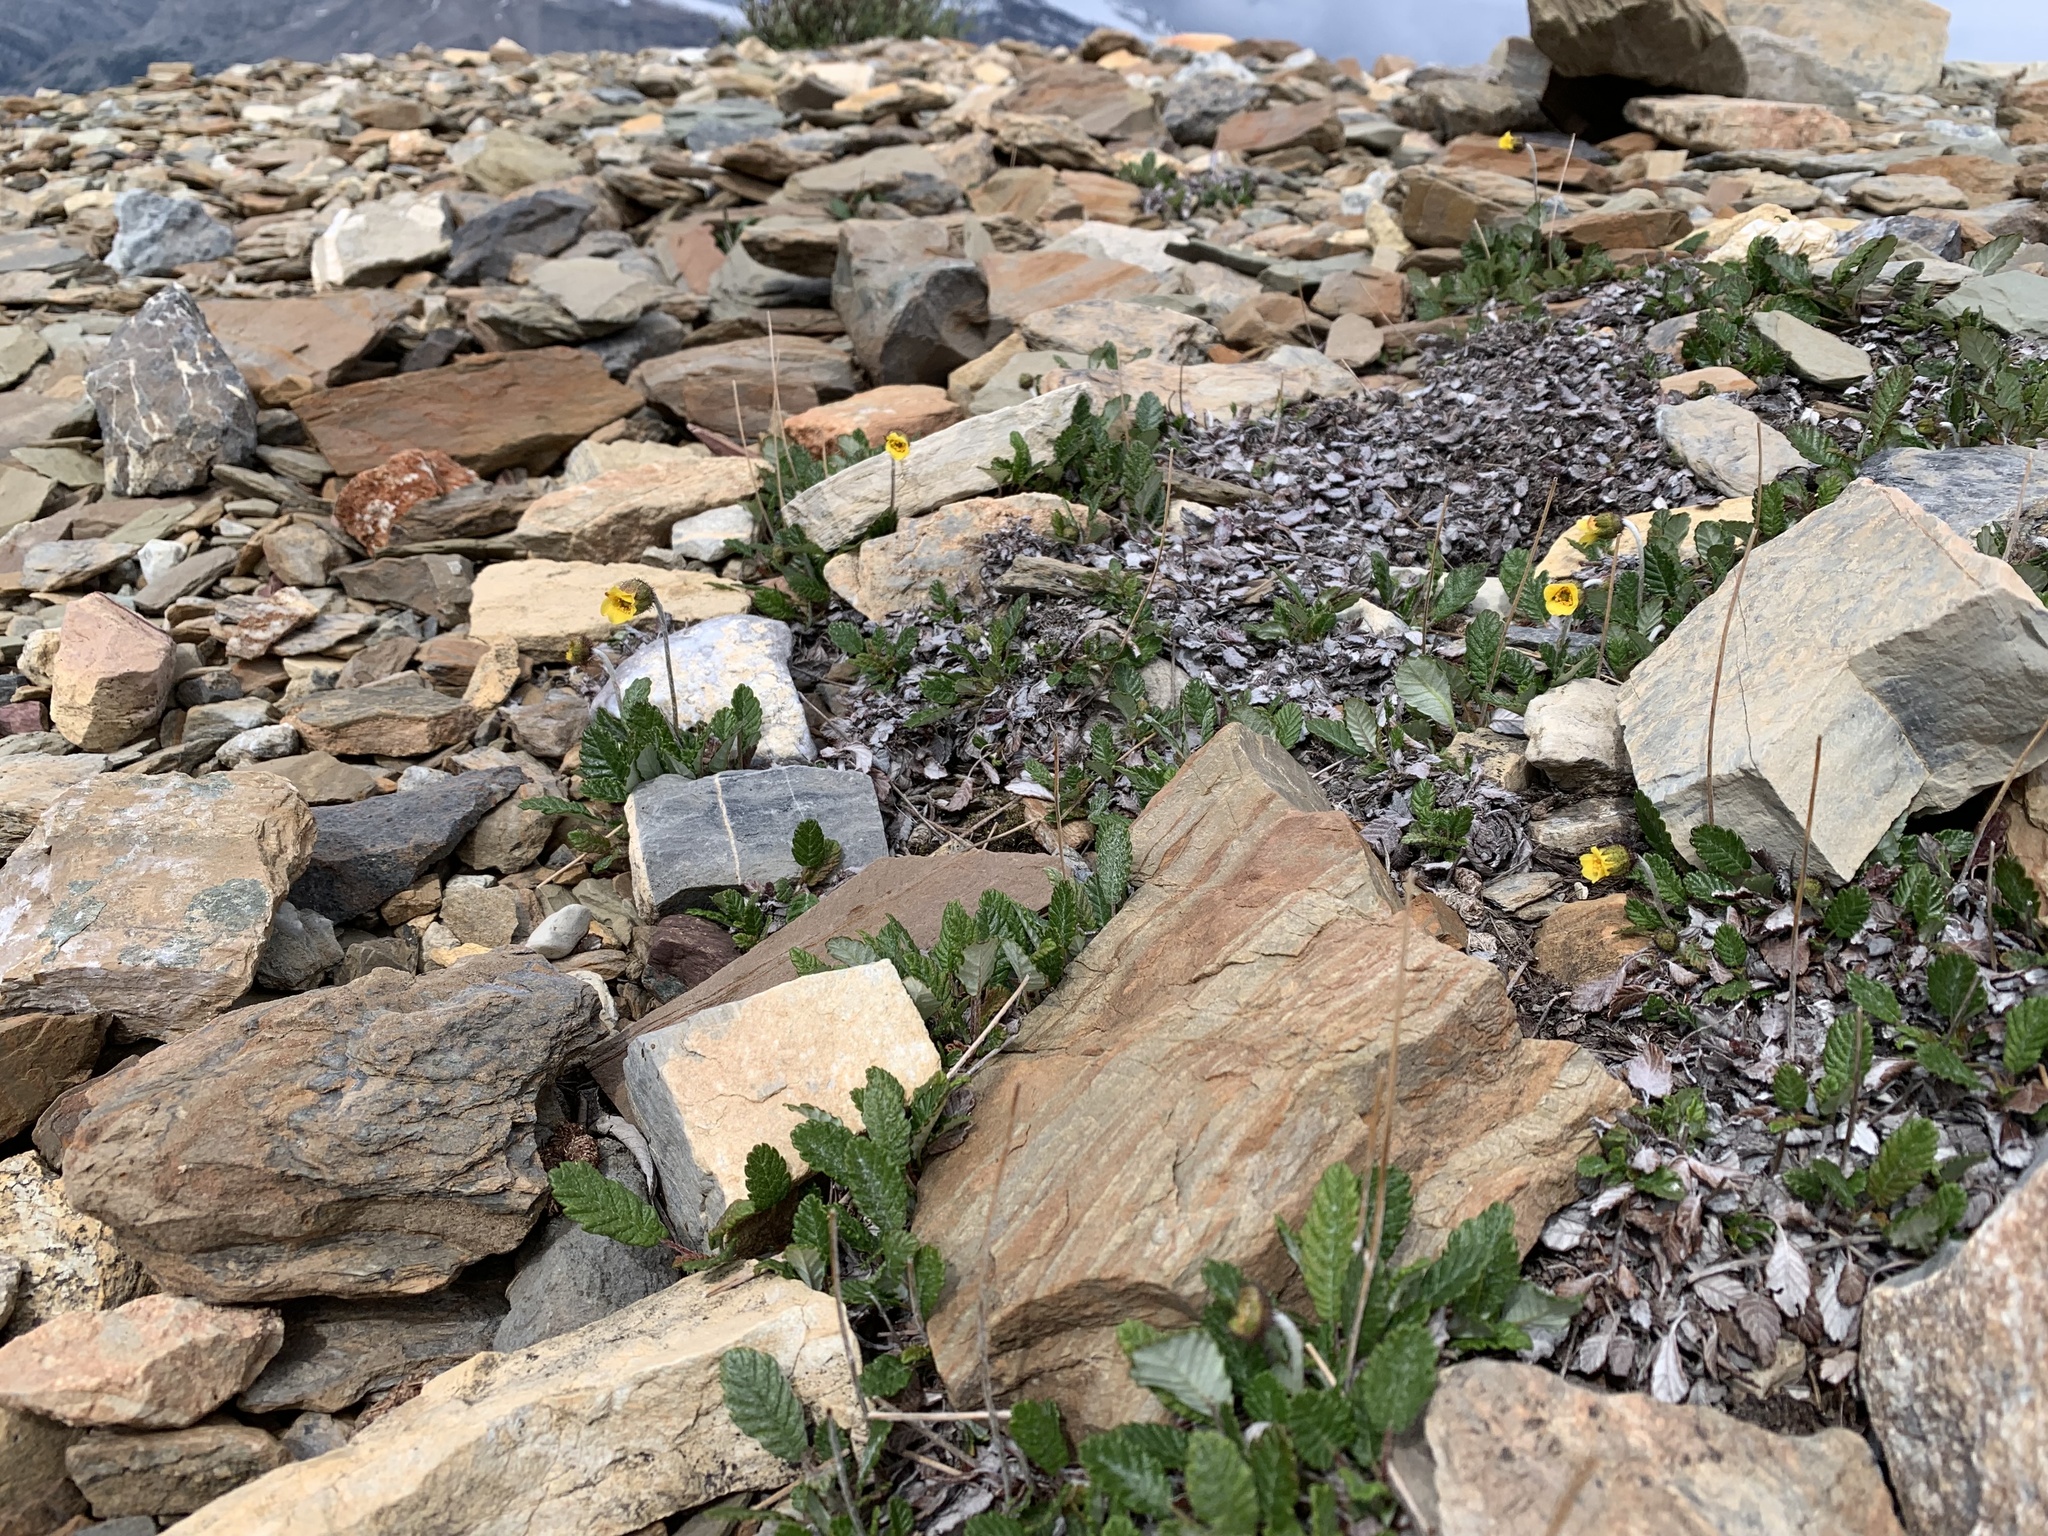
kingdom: Plantae
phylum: Tracheophyta
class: Magnoliopsida
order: Rosales
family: Rosaceae
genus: Dryas
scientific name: Dryas drummondii
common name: Drummond's dryad
